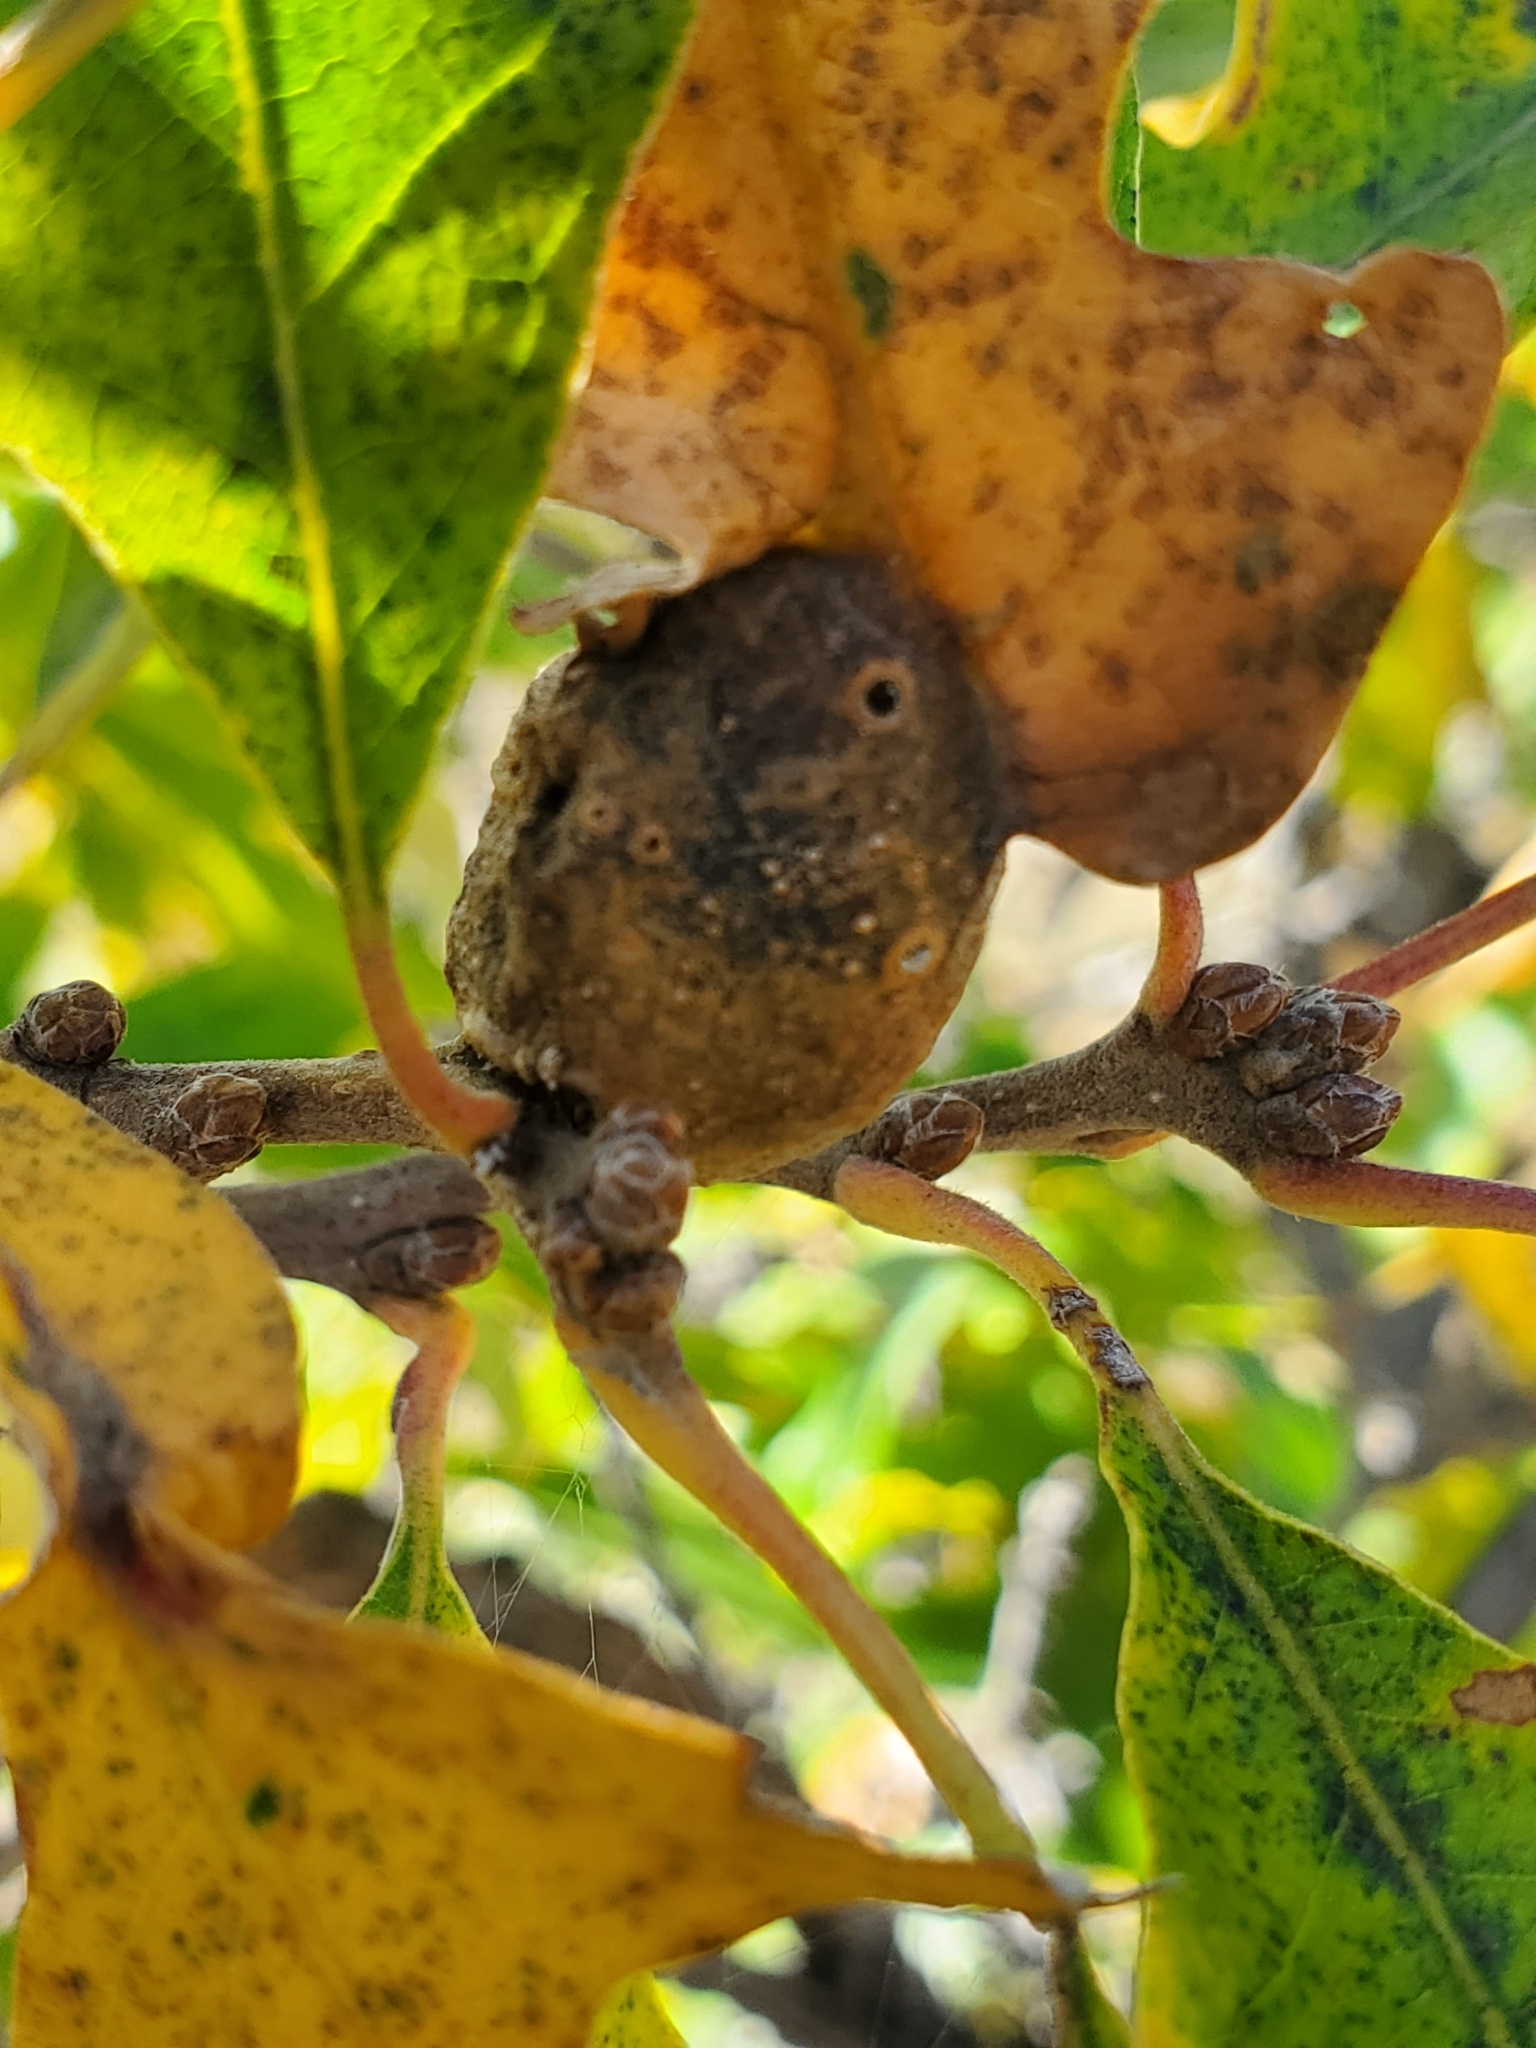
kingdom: Animalia
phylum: Arthropoda
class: Insecta
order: Hymenoptera
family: Cynipidae
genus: Andricus
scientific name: Andricus
